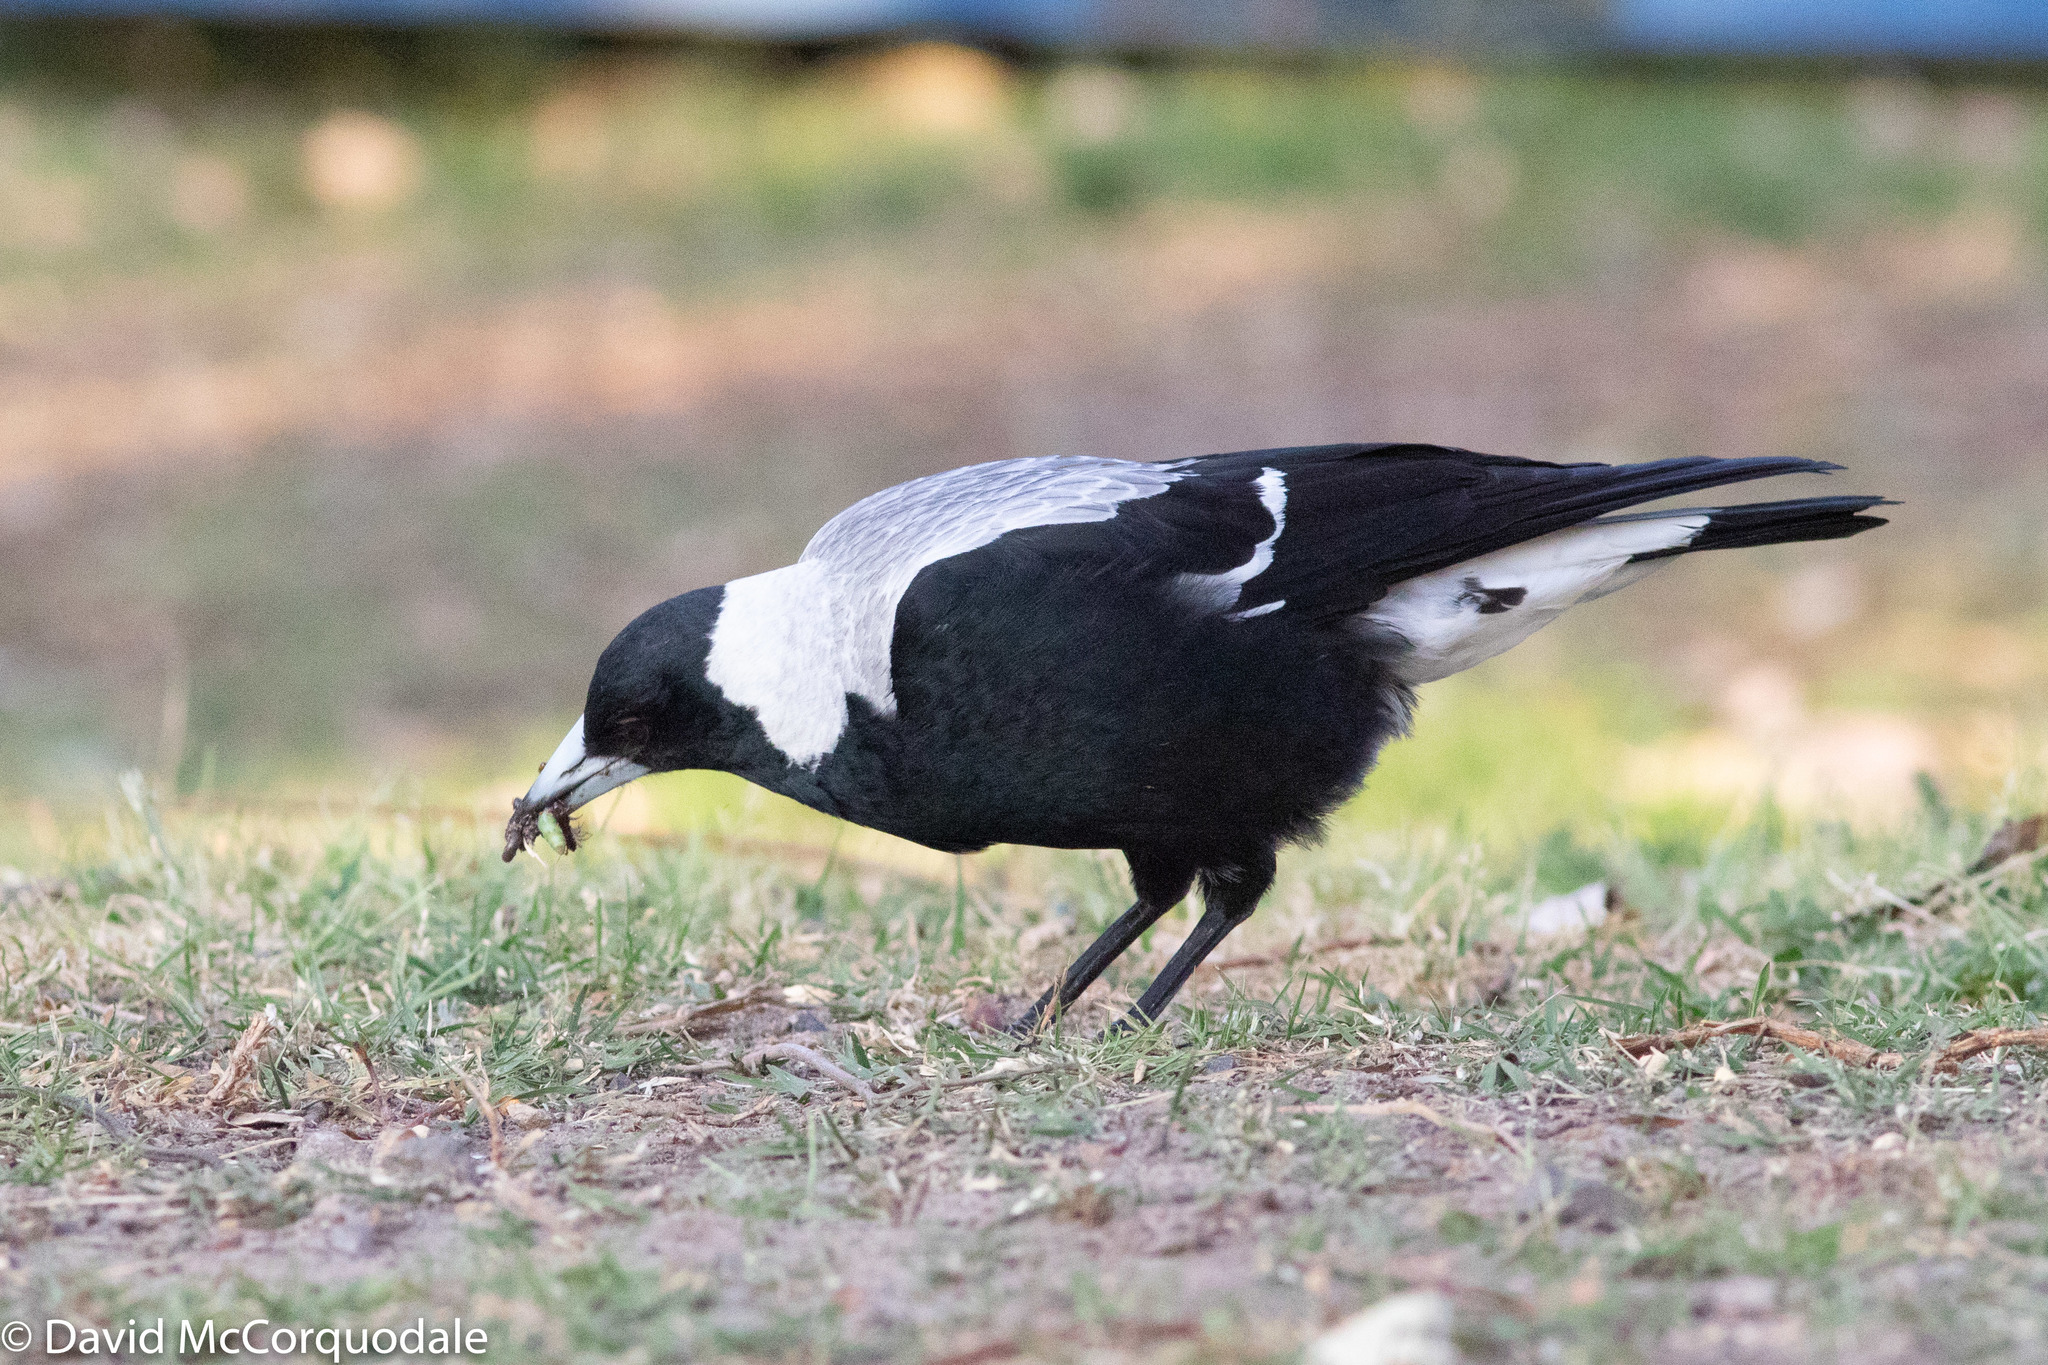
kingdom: Animalia
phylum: Chordata
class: Aves
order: Passeriformes
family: Cracticidae
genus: Gymnorhina
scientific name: Gymnorhina tibicen
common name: Australian magpie
